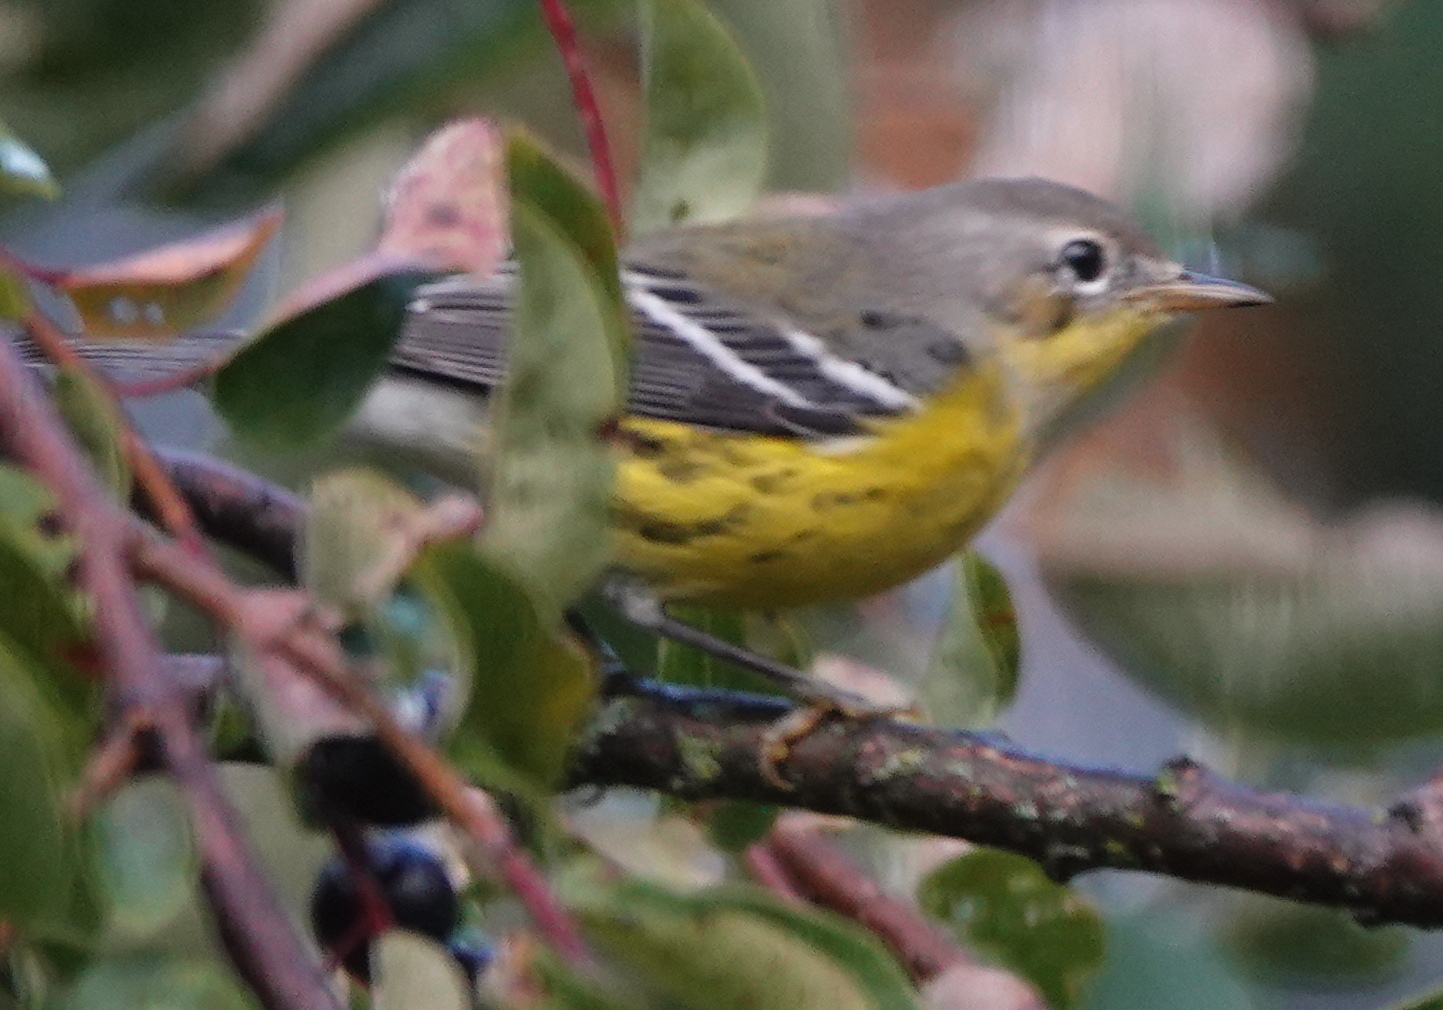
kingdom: Animalia
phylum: Chordata
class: Aves
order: Passeriformes
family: Parulidae
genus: Setophaga
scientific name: Setophaga magnolia
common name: Magnolia warbler
